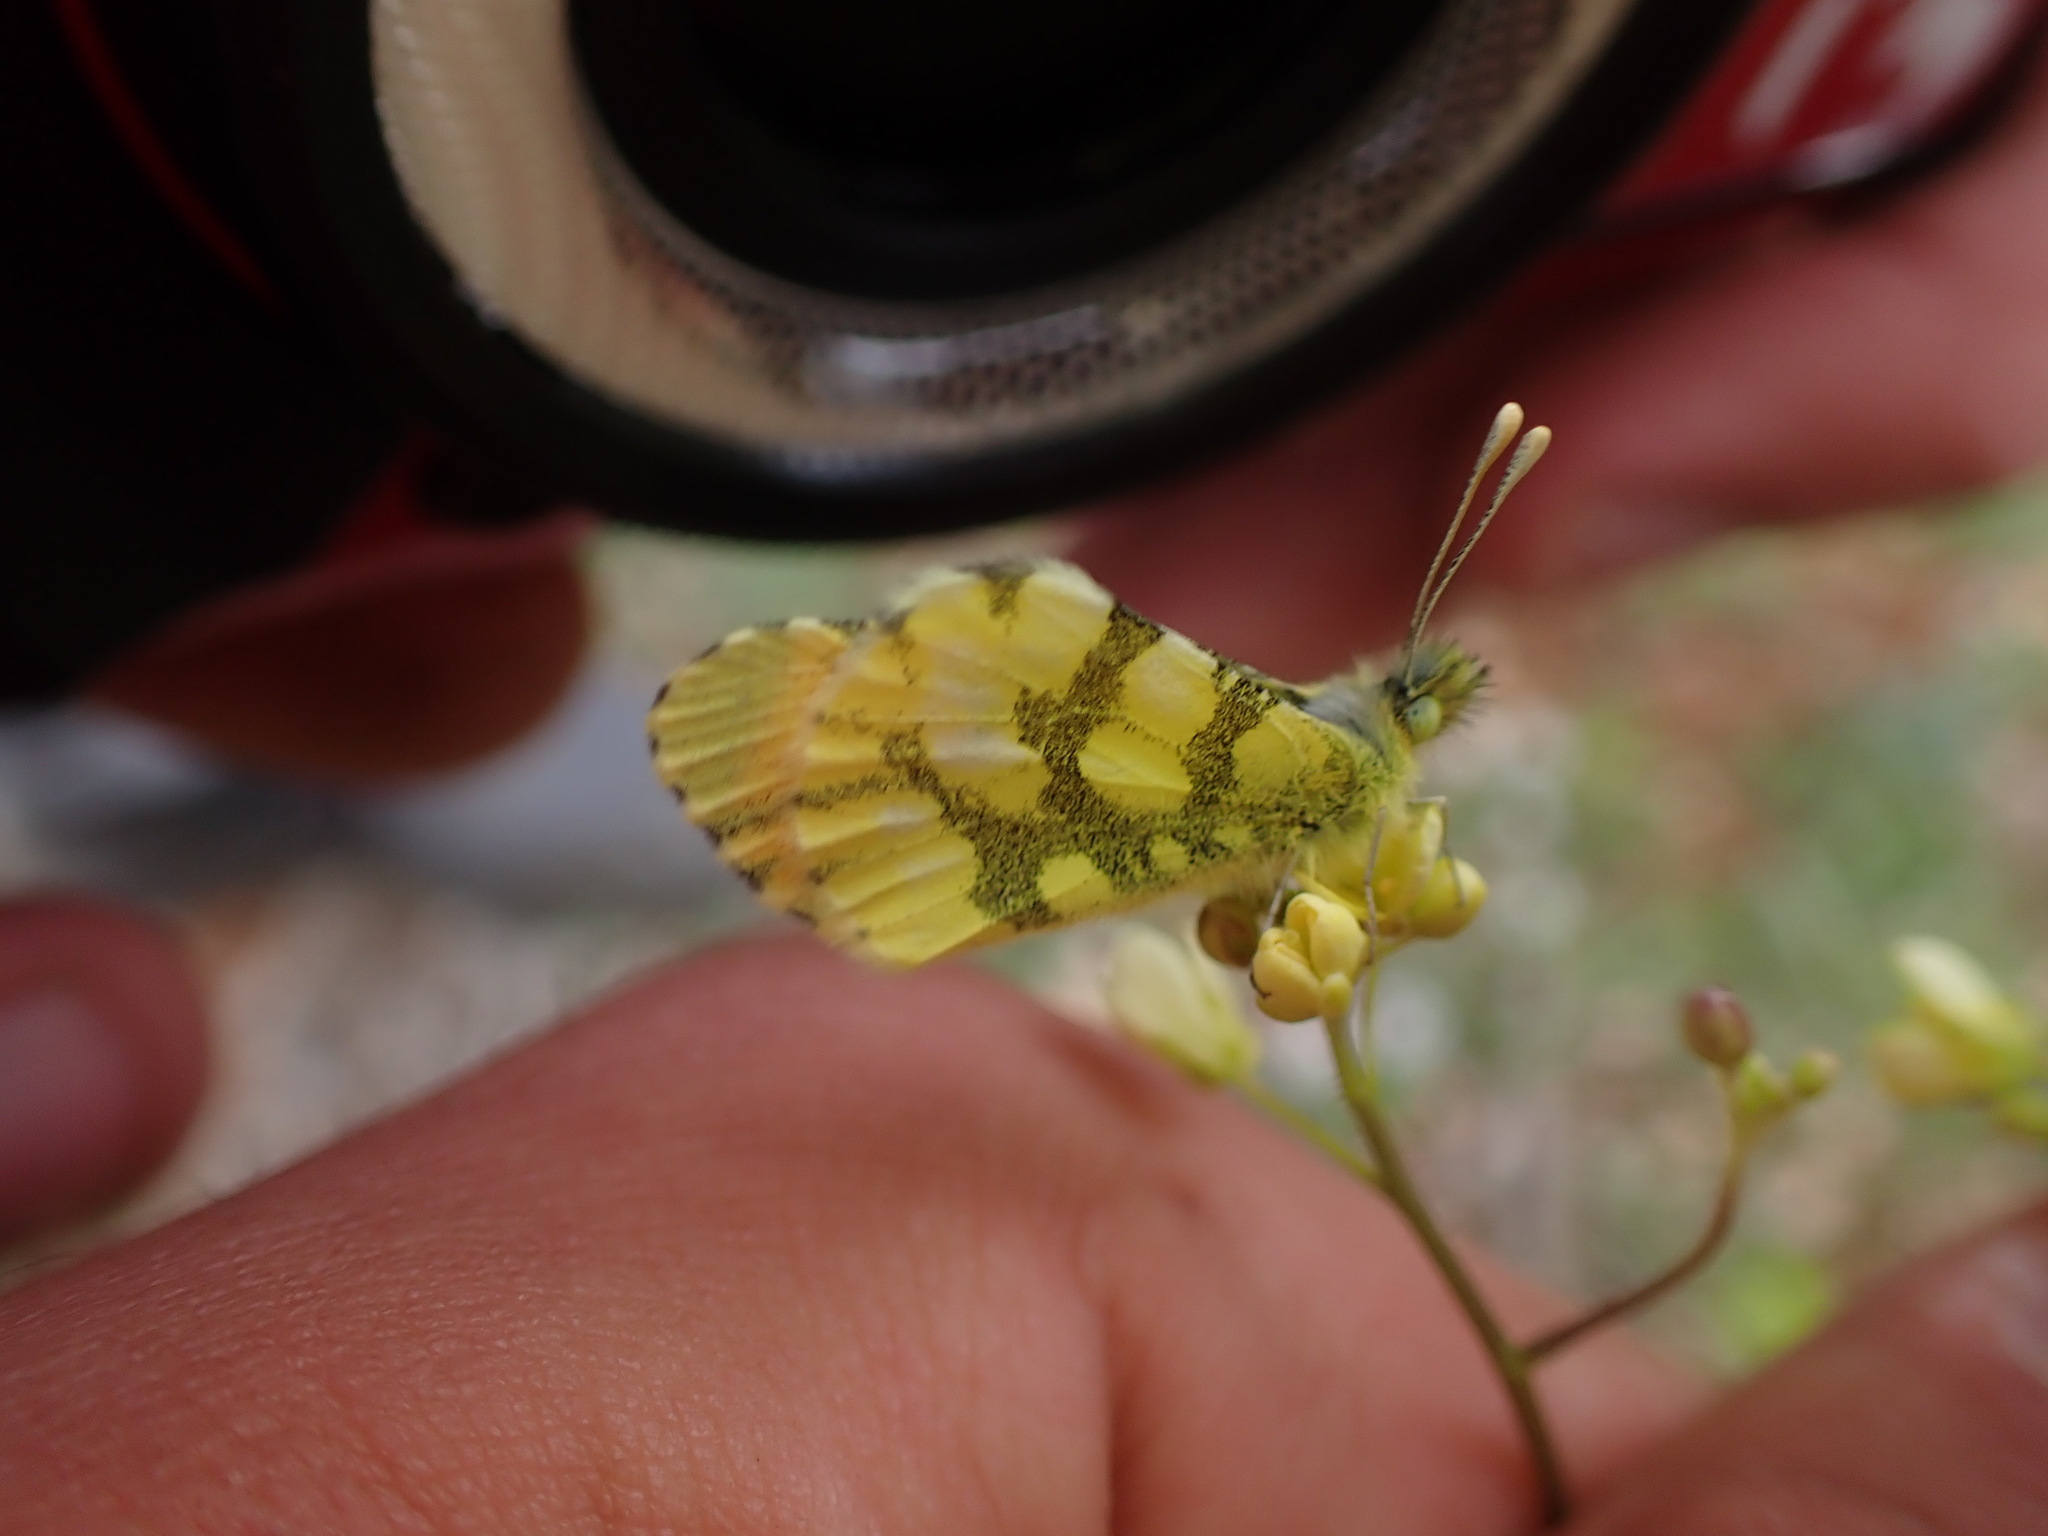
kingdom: Animalia
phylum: Arthropoda
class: Insecta
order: Lepidoptera
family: Pieridae
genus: Anthocharis
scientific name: Anthocharis euphenoides
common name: Provence orange-tip
